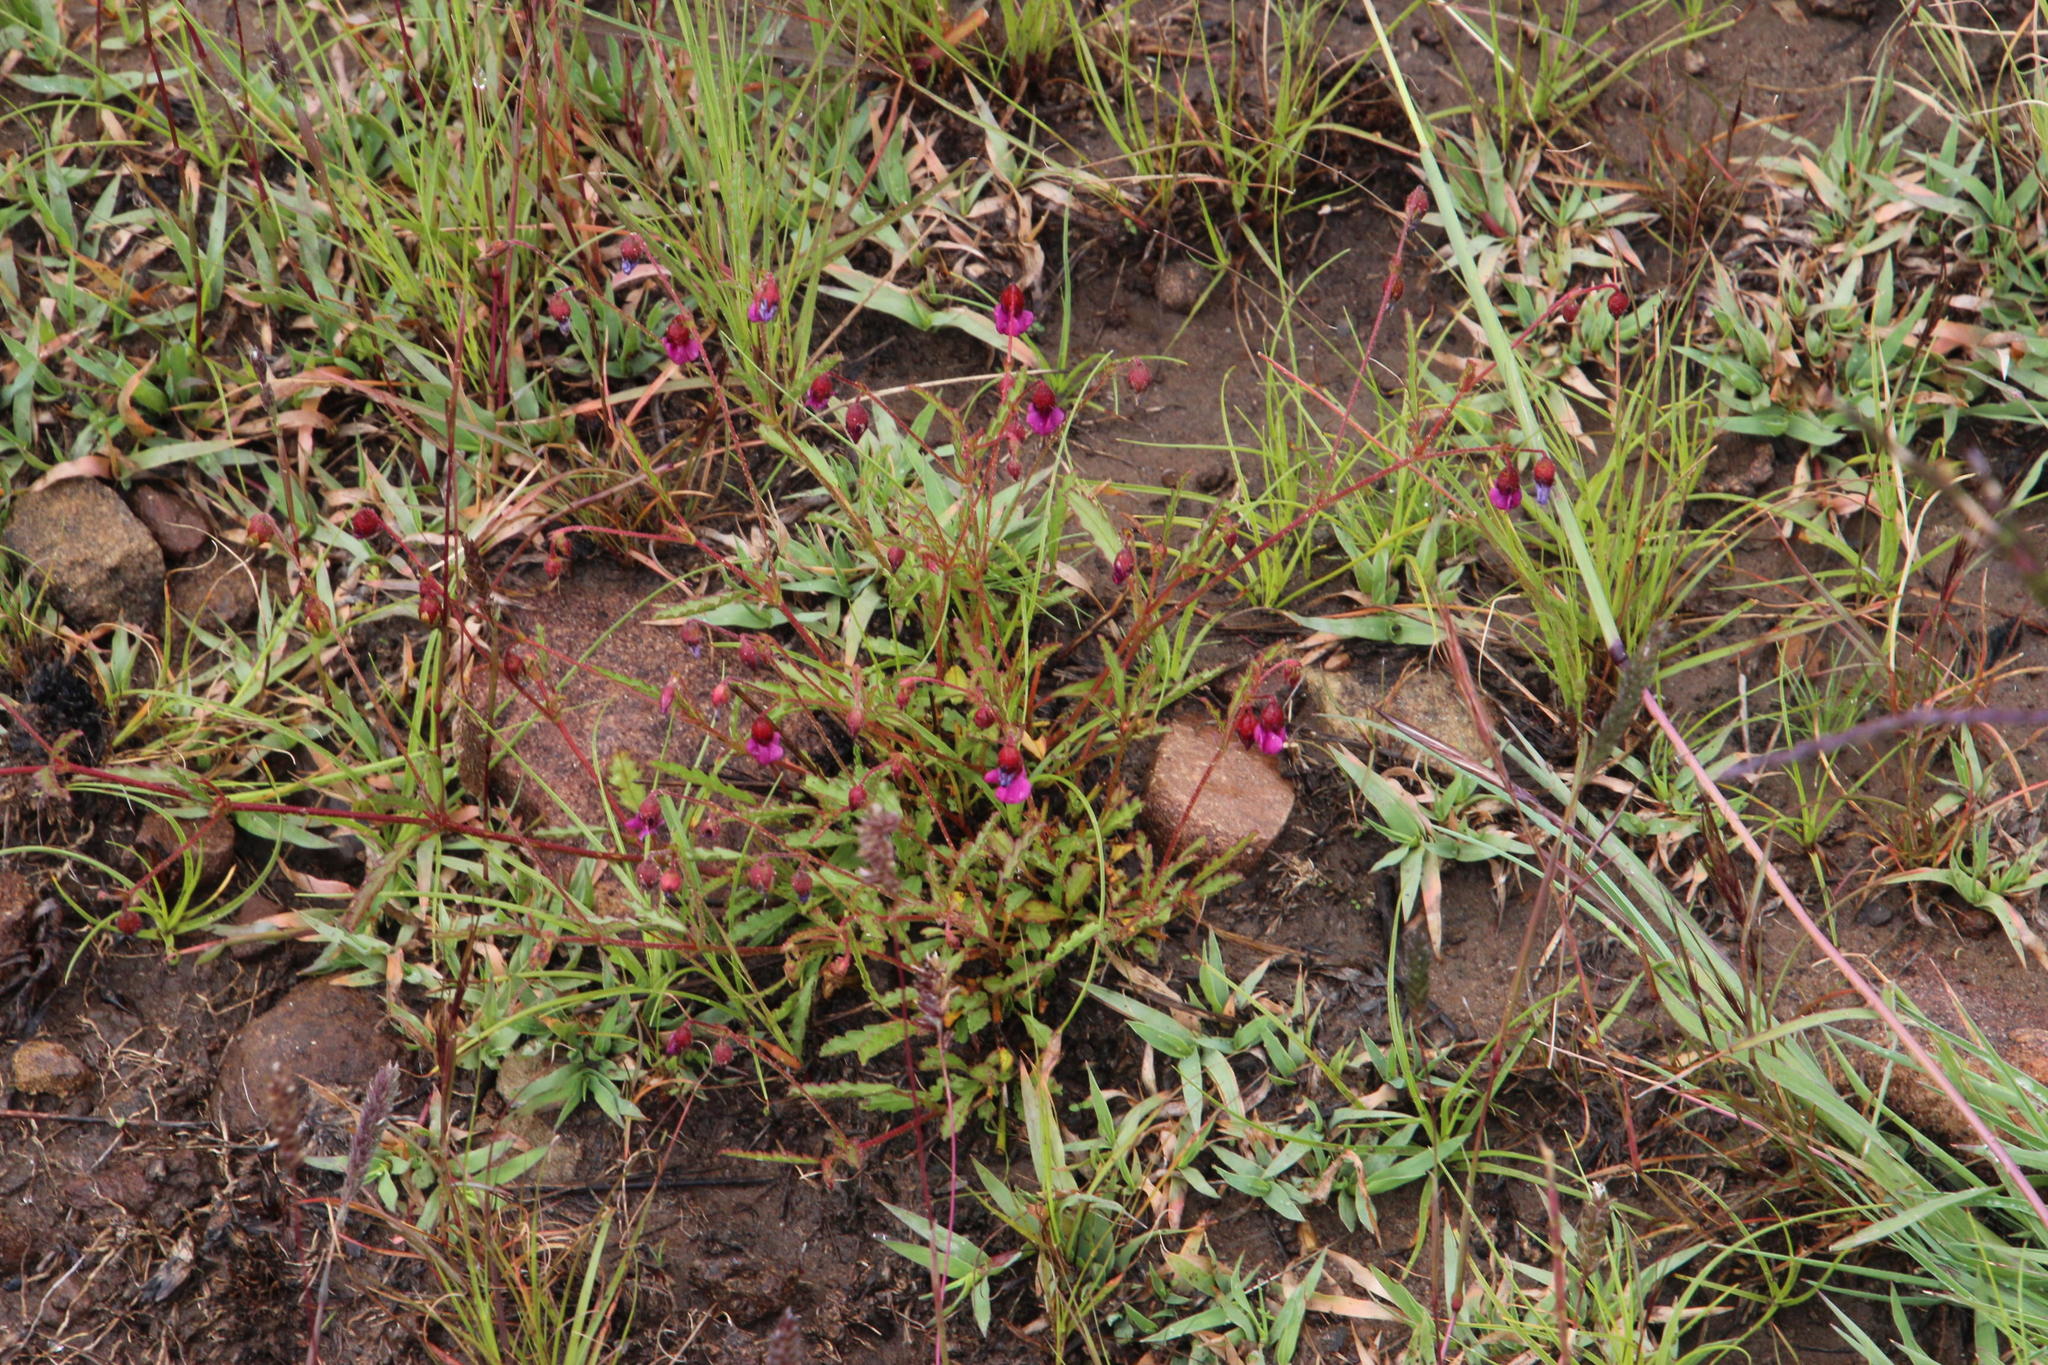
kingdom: Plantae
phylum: Tracheophyta
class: Magnoliopsida
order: Malvales
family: Malvaceae
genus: Hermannia
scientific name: Hermannia coccocarpa
